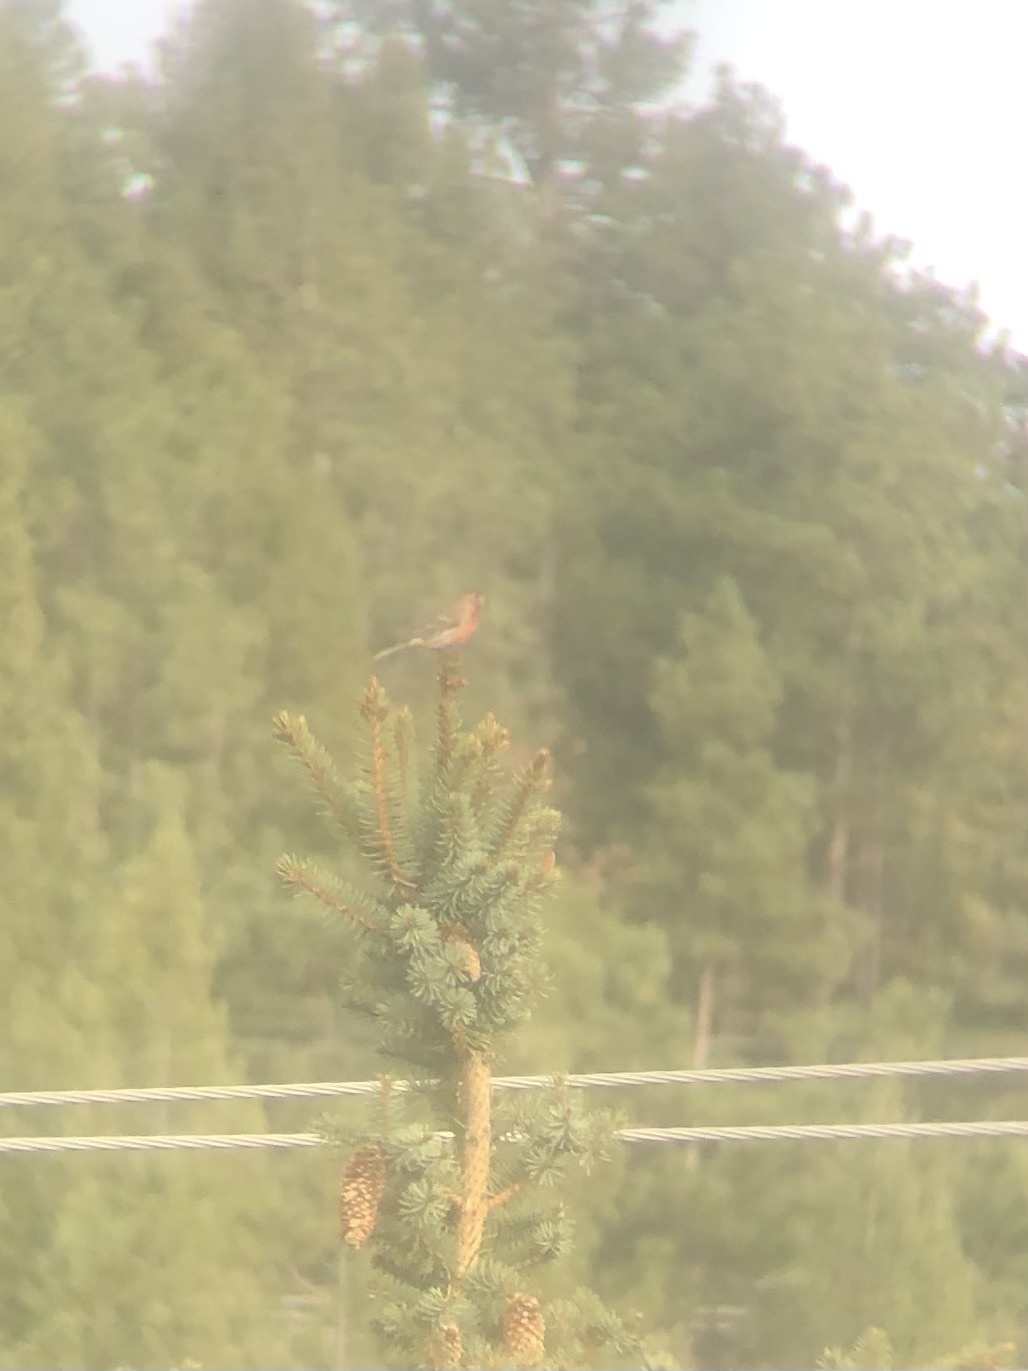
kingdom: Animalia
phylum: Chordata
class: Aves
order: Passeriformes
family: Fringillidae
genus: Haemorhous
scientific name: Haemorhous mexicanus
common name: House finch
